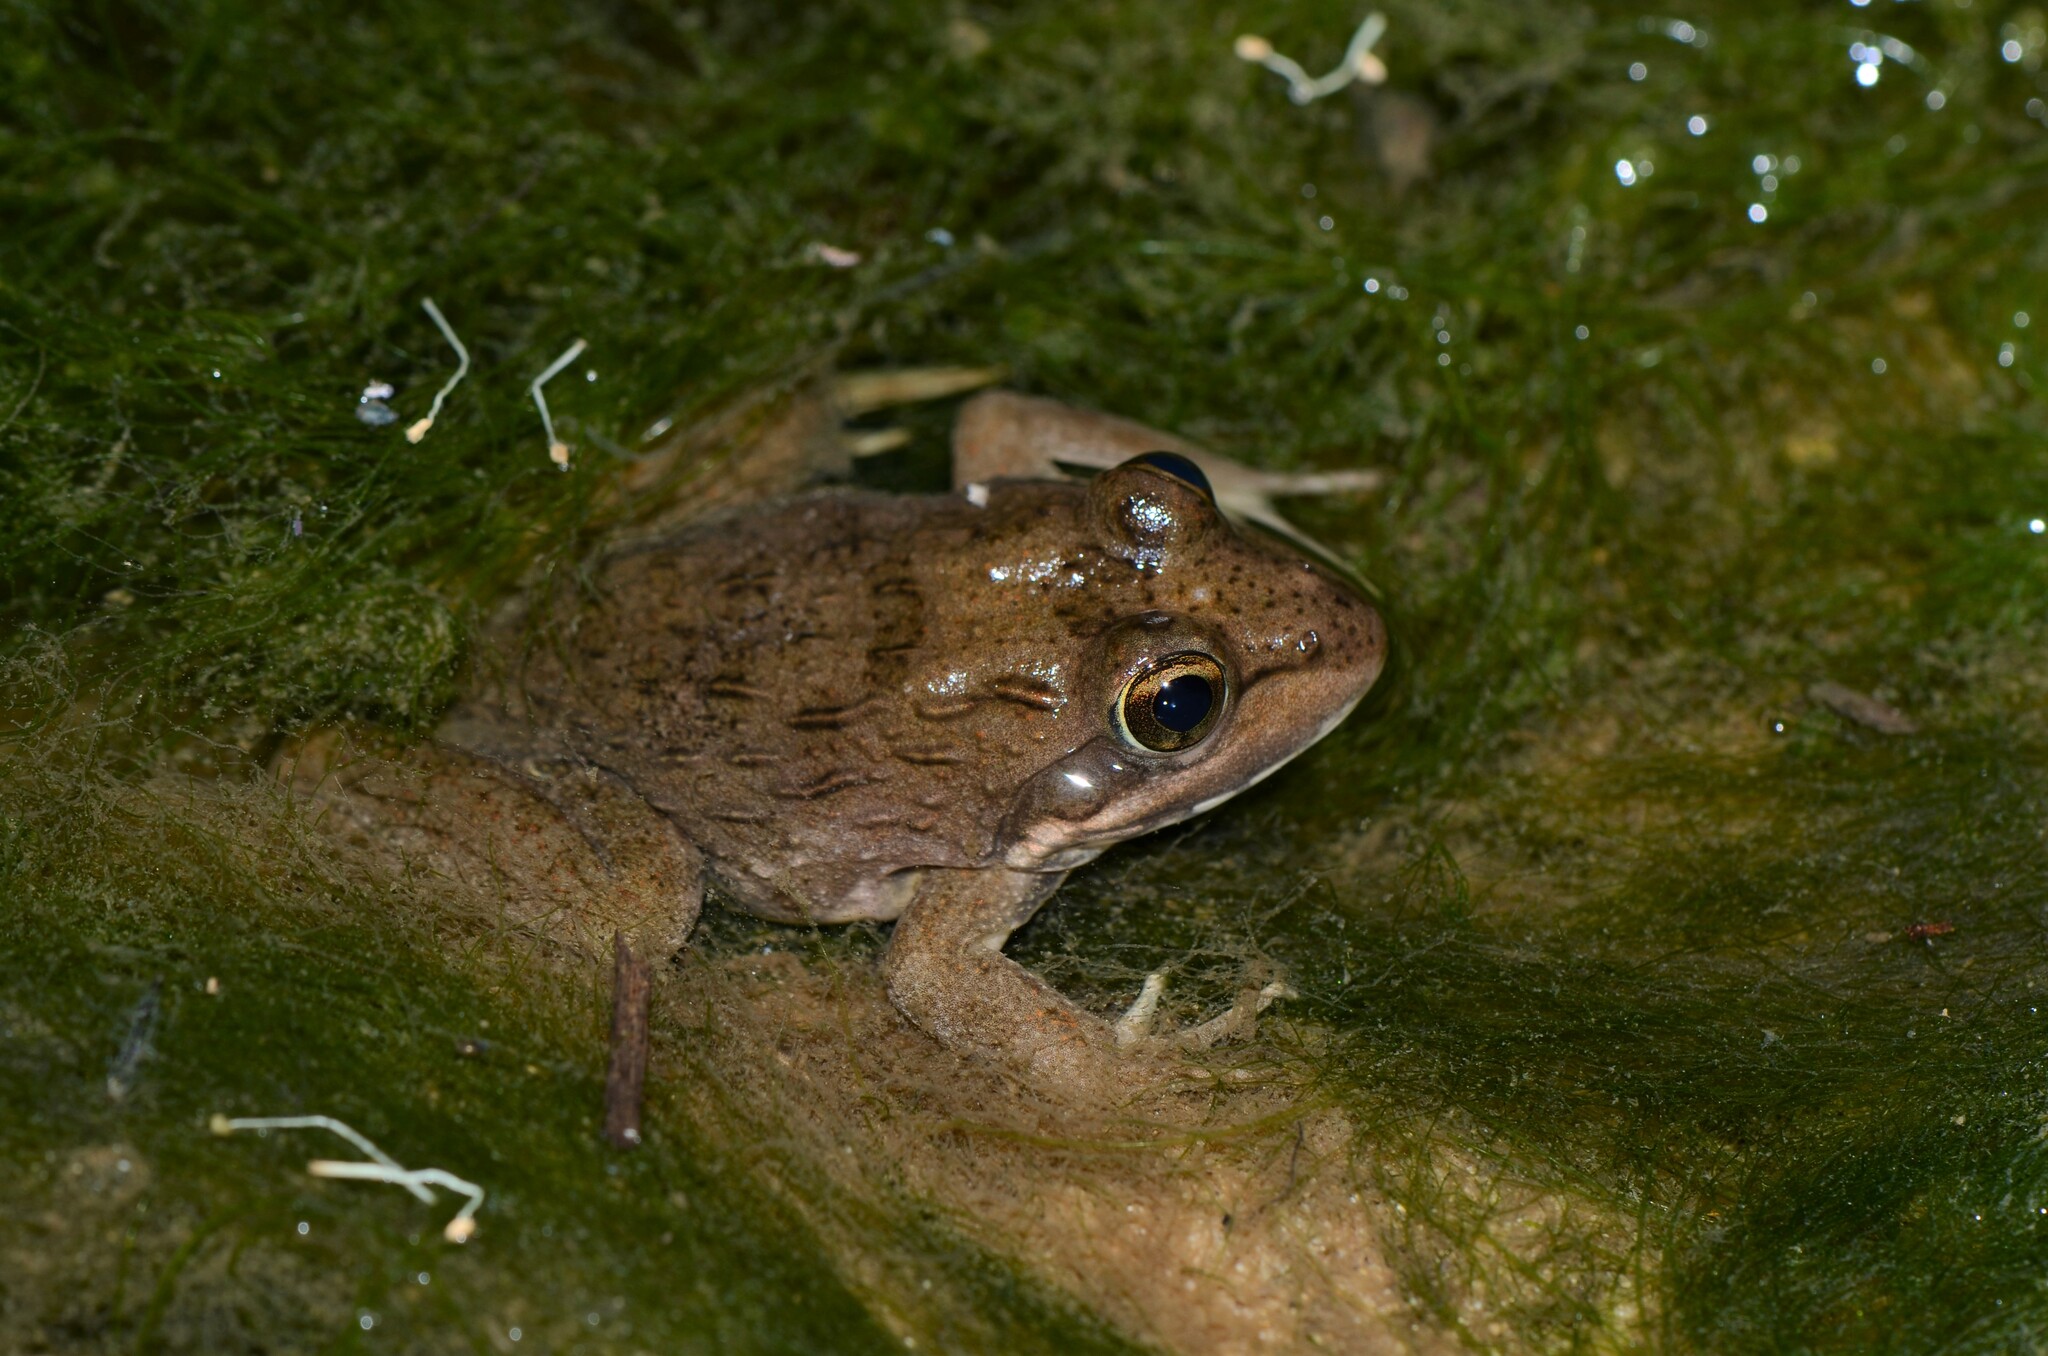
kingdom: Animalia
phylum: Chordata
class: Amphibia
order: Anura
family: Pyxicephalidae
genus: Amietia
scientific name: Amietia fuscigula
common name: Cape rana
